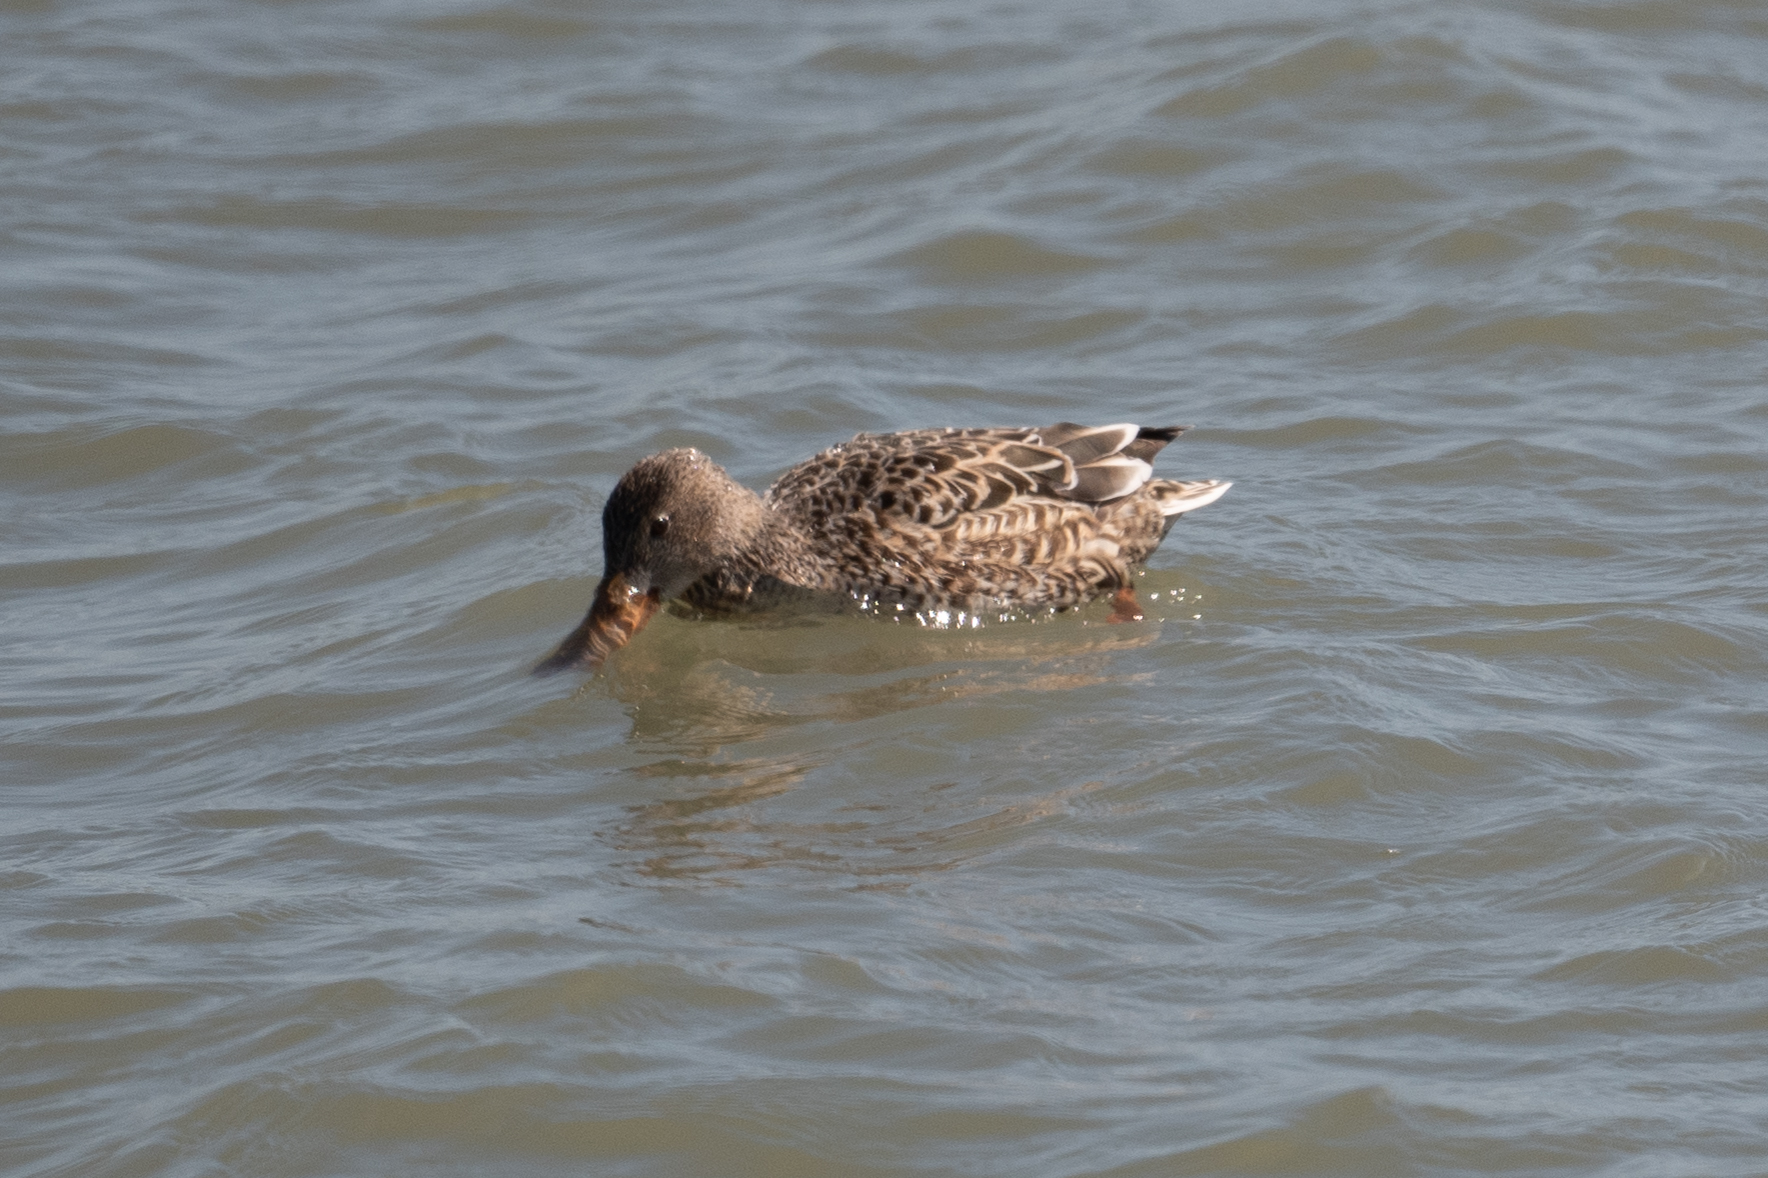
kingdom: Animalia
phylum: Chordata
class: Aves
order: Anseriformes
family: Anatidae
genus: Spatula
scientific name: Spatula clypeata
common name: Northern shoveler
